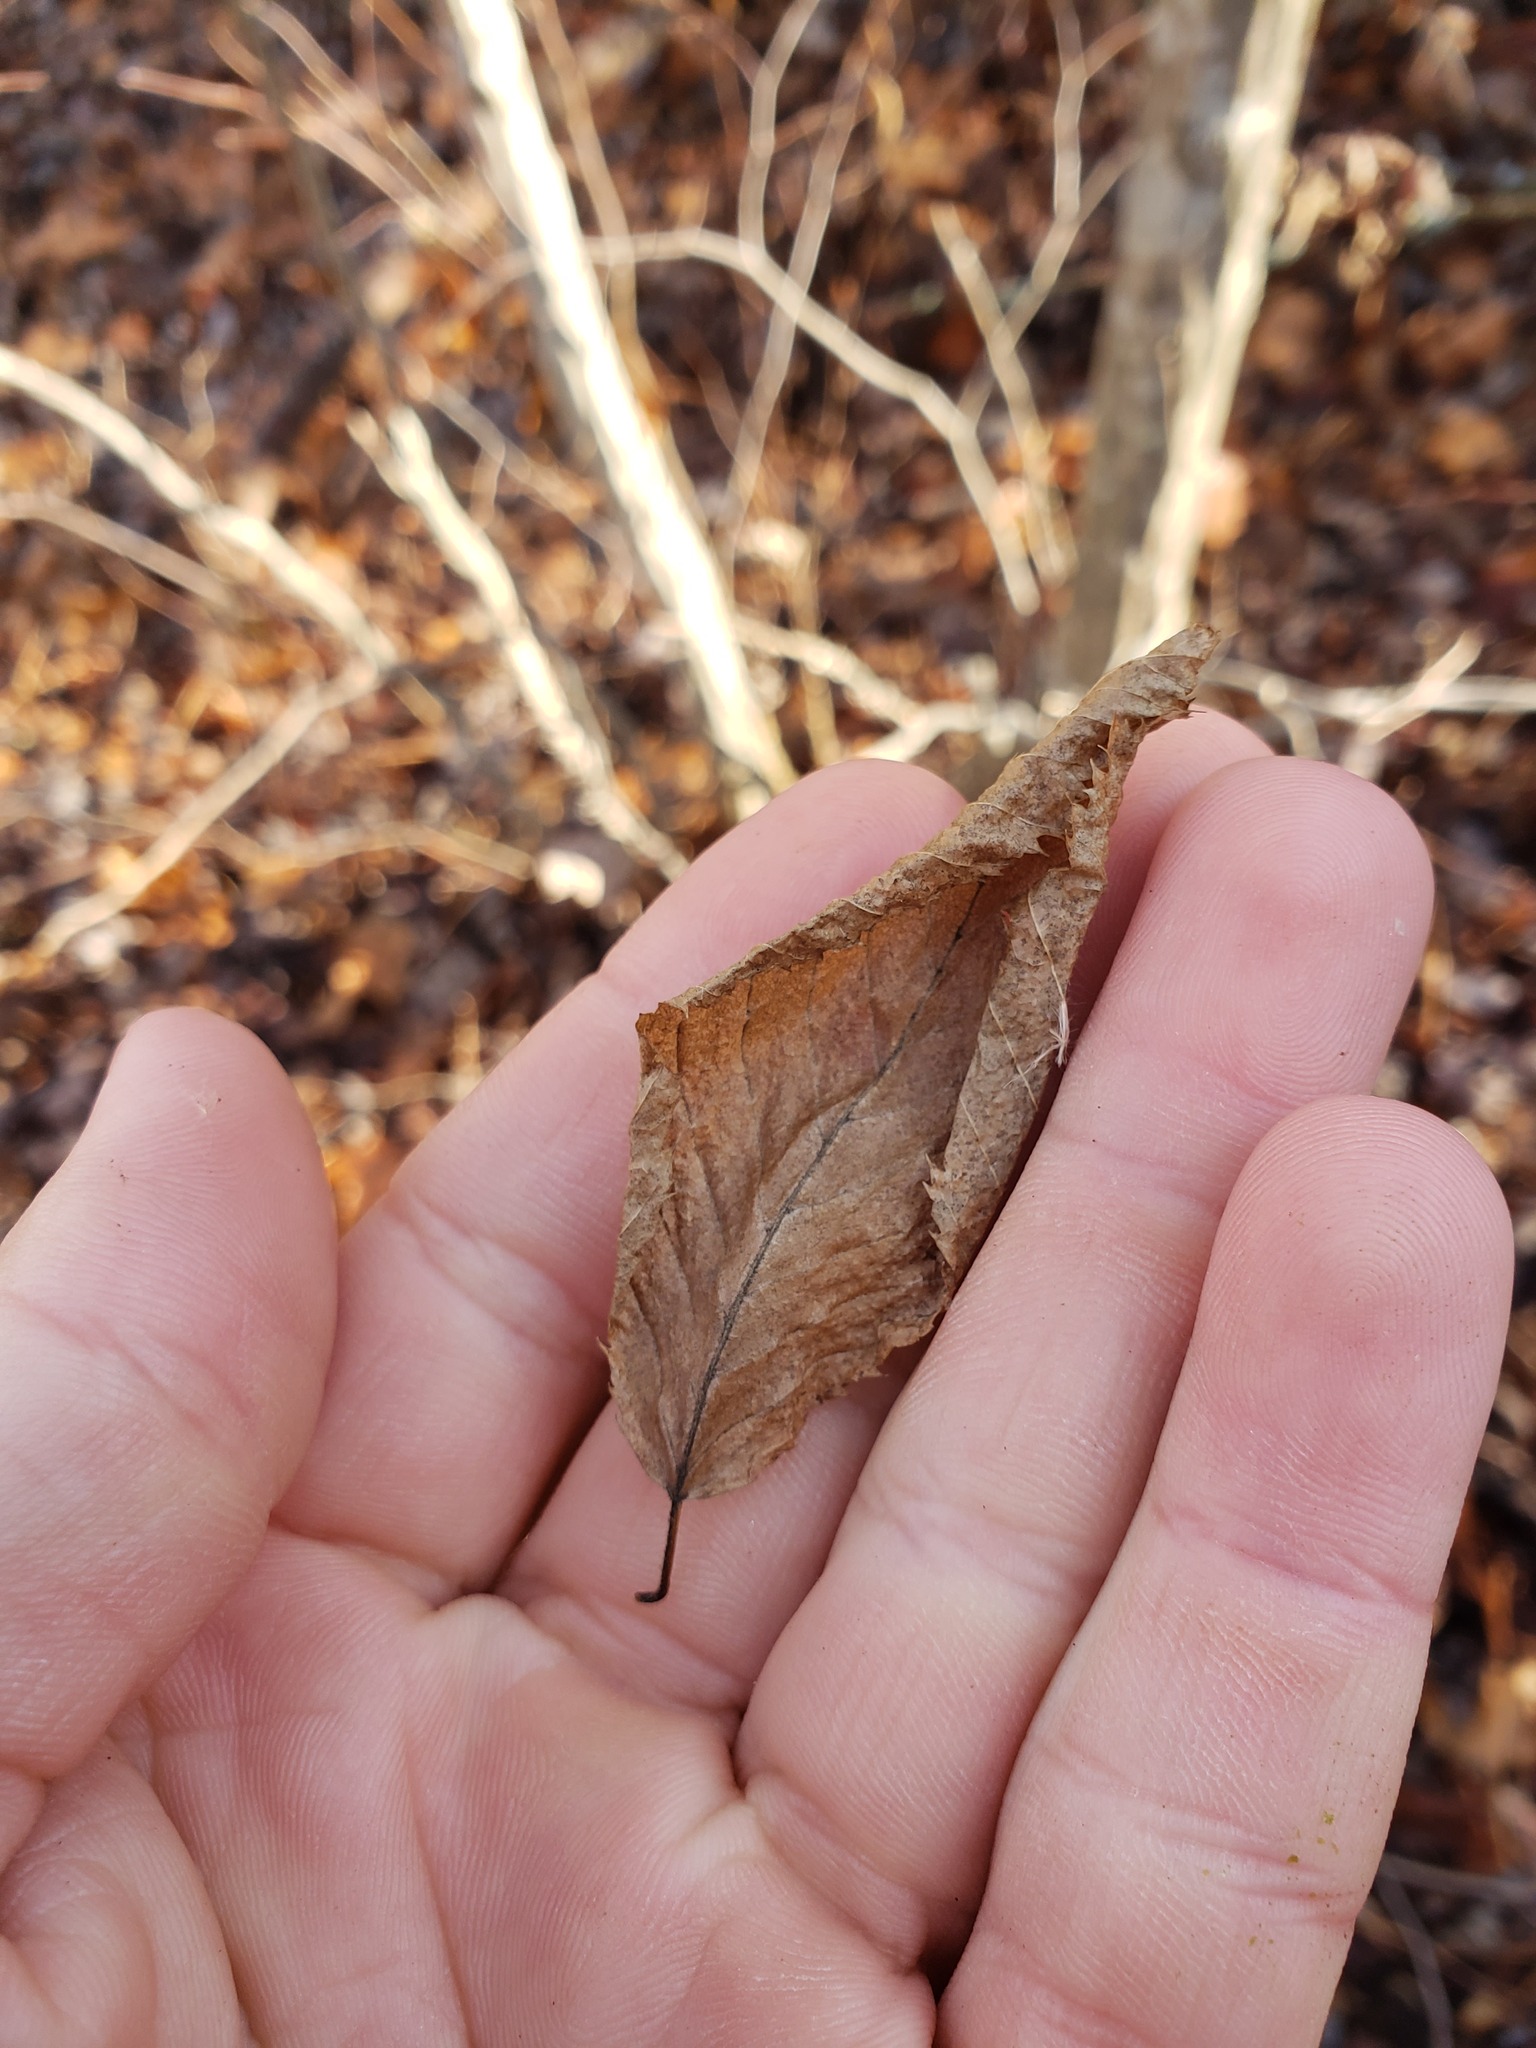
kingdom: Plantae
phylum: Tracheophyta
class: Magnoliopsida
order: Fagales
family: Betulaceae
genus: Carpinus
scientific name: Carpinus caroliniana
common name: American hornbeam
